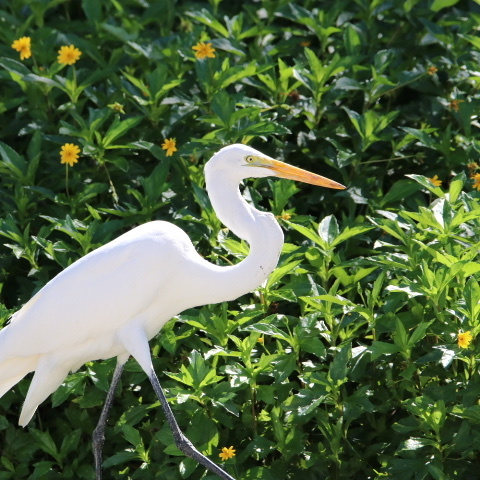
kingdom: Animalia
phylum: Chordata
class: Aves
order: Pelecaniformes
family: Ardeidae
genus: Ardea
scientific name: Ardea alba
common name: Great egret
